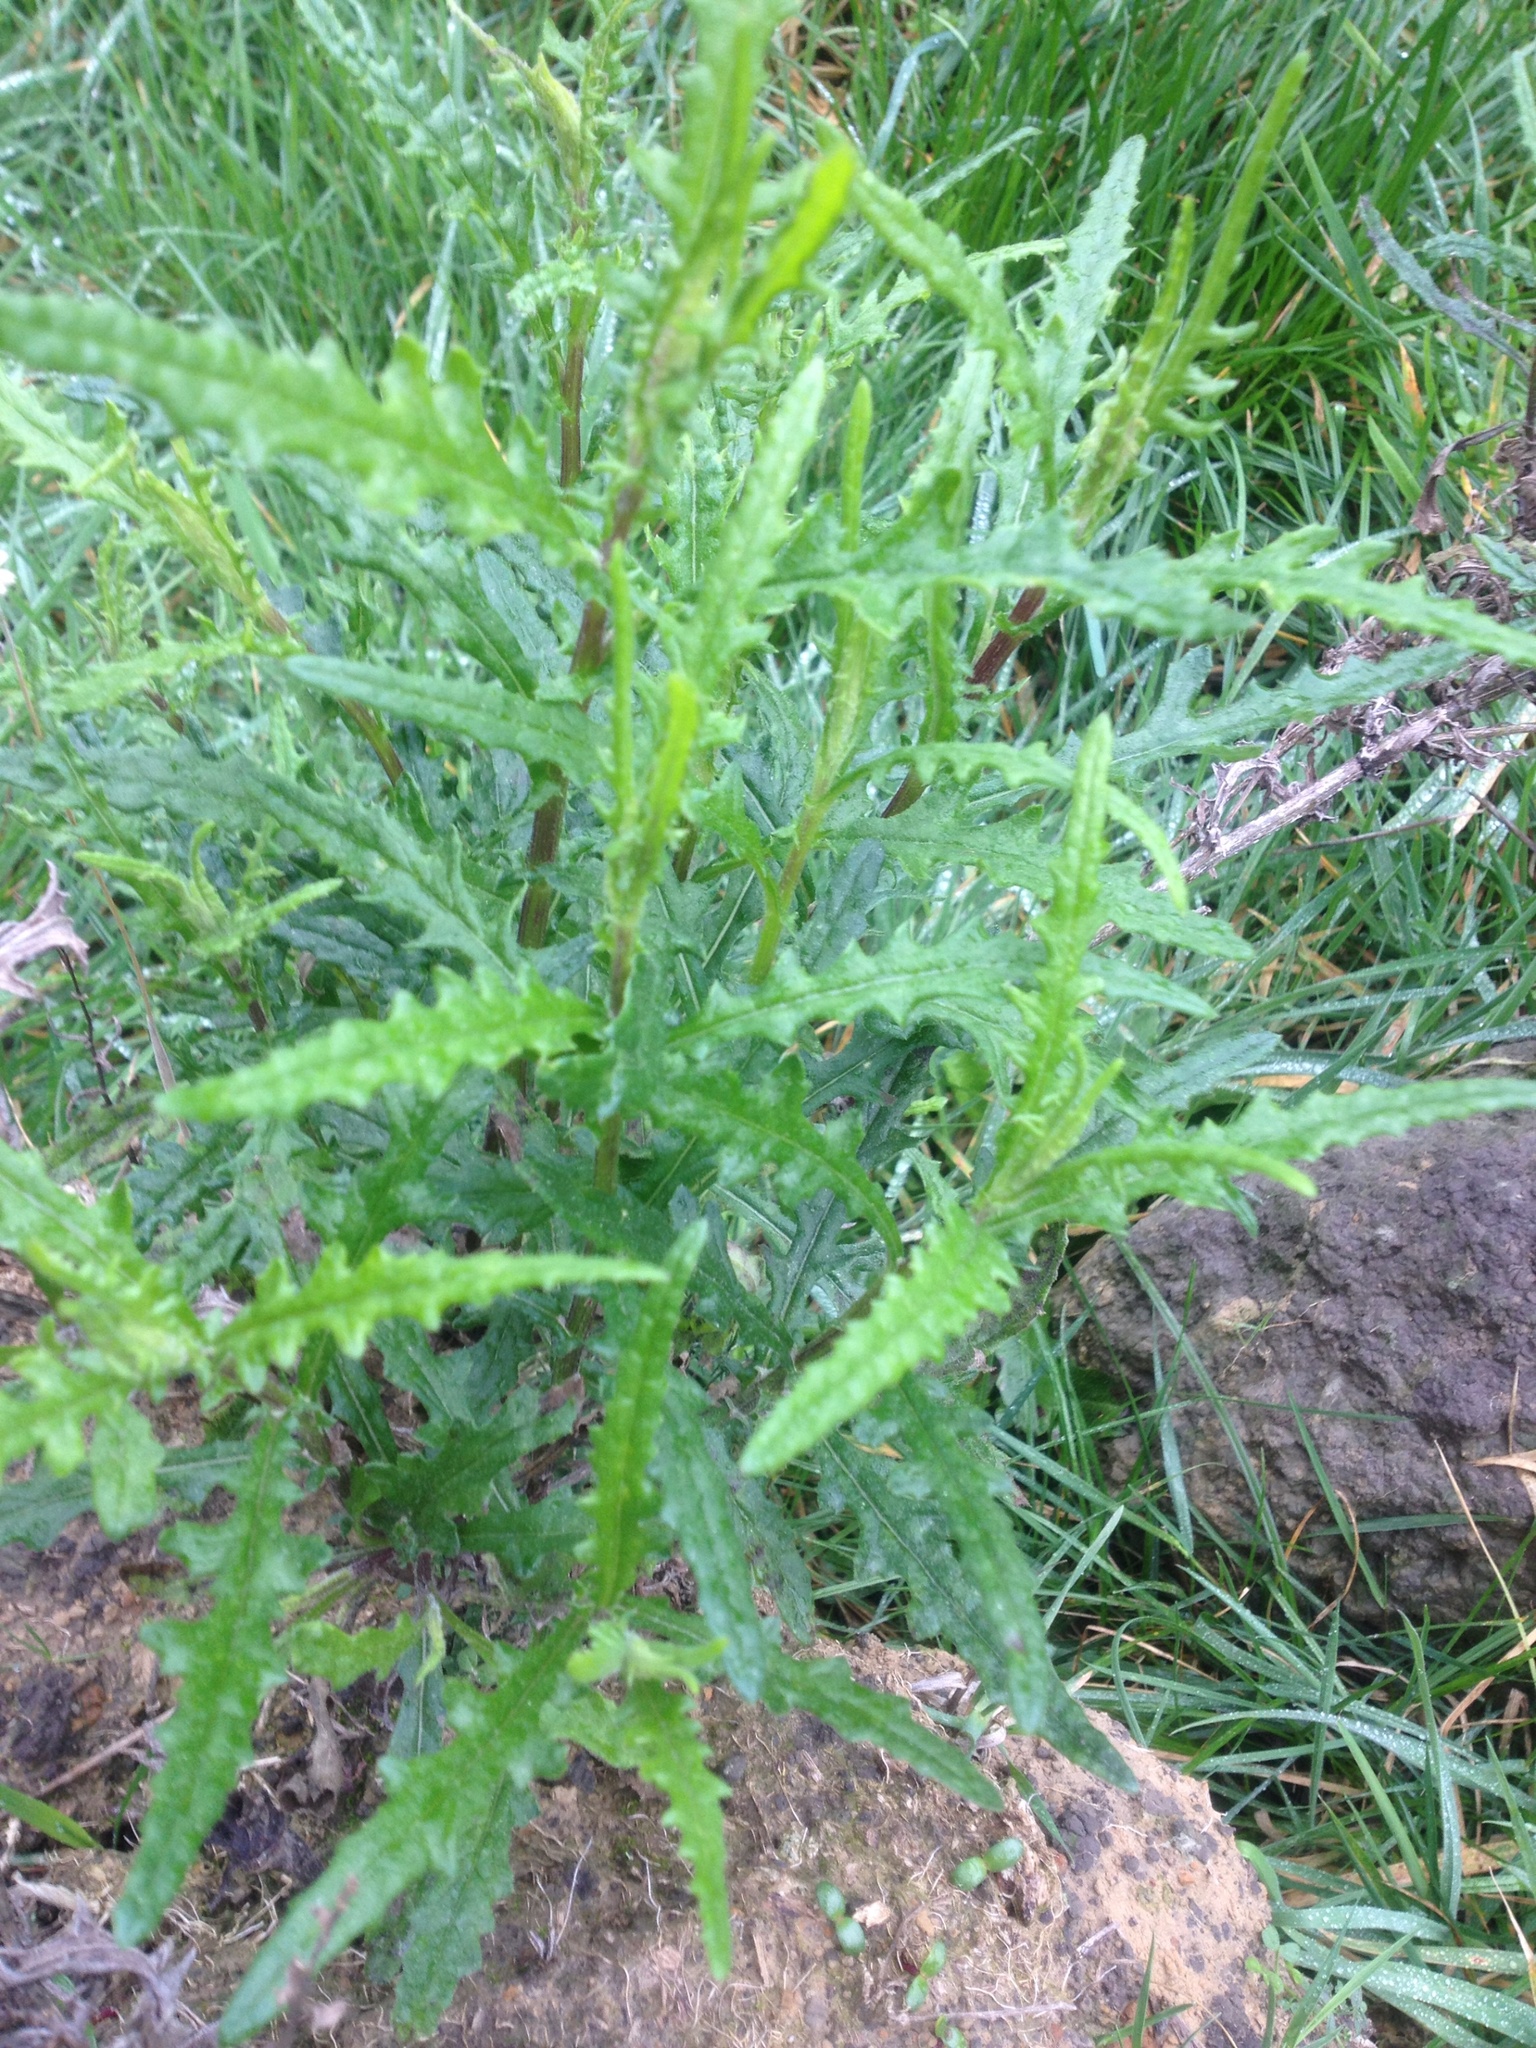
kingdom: Plantae
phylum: Tracheophyta
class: Magnoliopsida
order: Asterales
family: Asteraceae
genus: Senecio
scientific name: Senecio hispidulus
